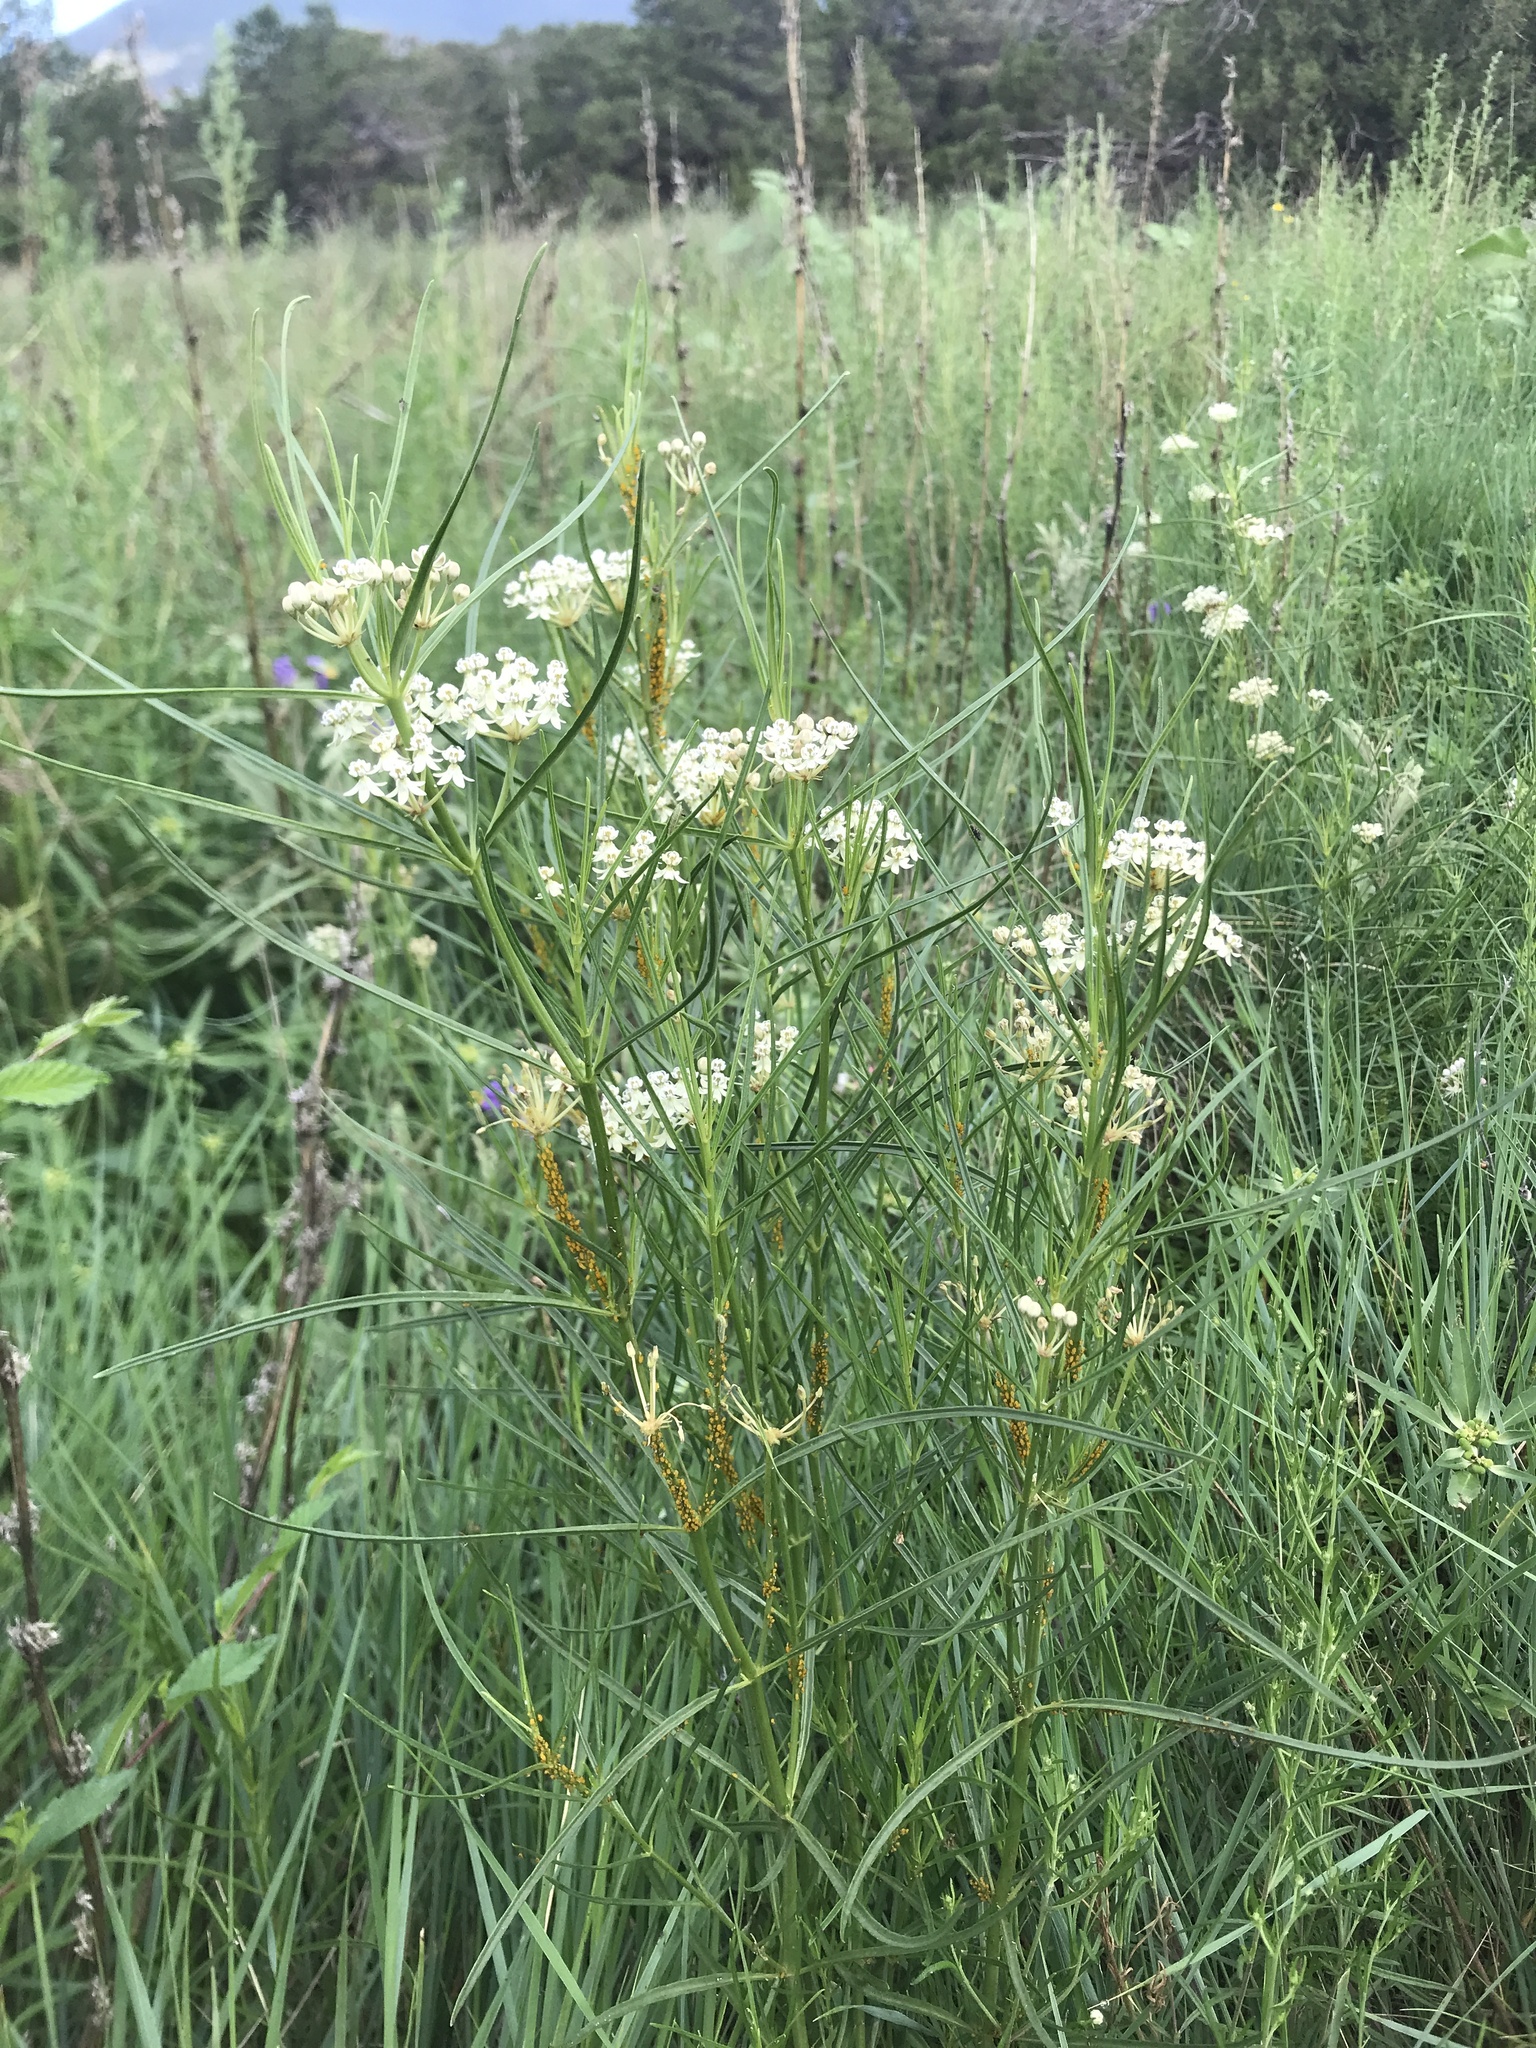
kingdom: Plantae
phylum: Tracheophyta
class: Magnoliopsida
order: Gentianales
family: Apocynaceae
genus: Asclepias
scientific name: Asclepias subverticillata
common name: Horsetail milkweed
